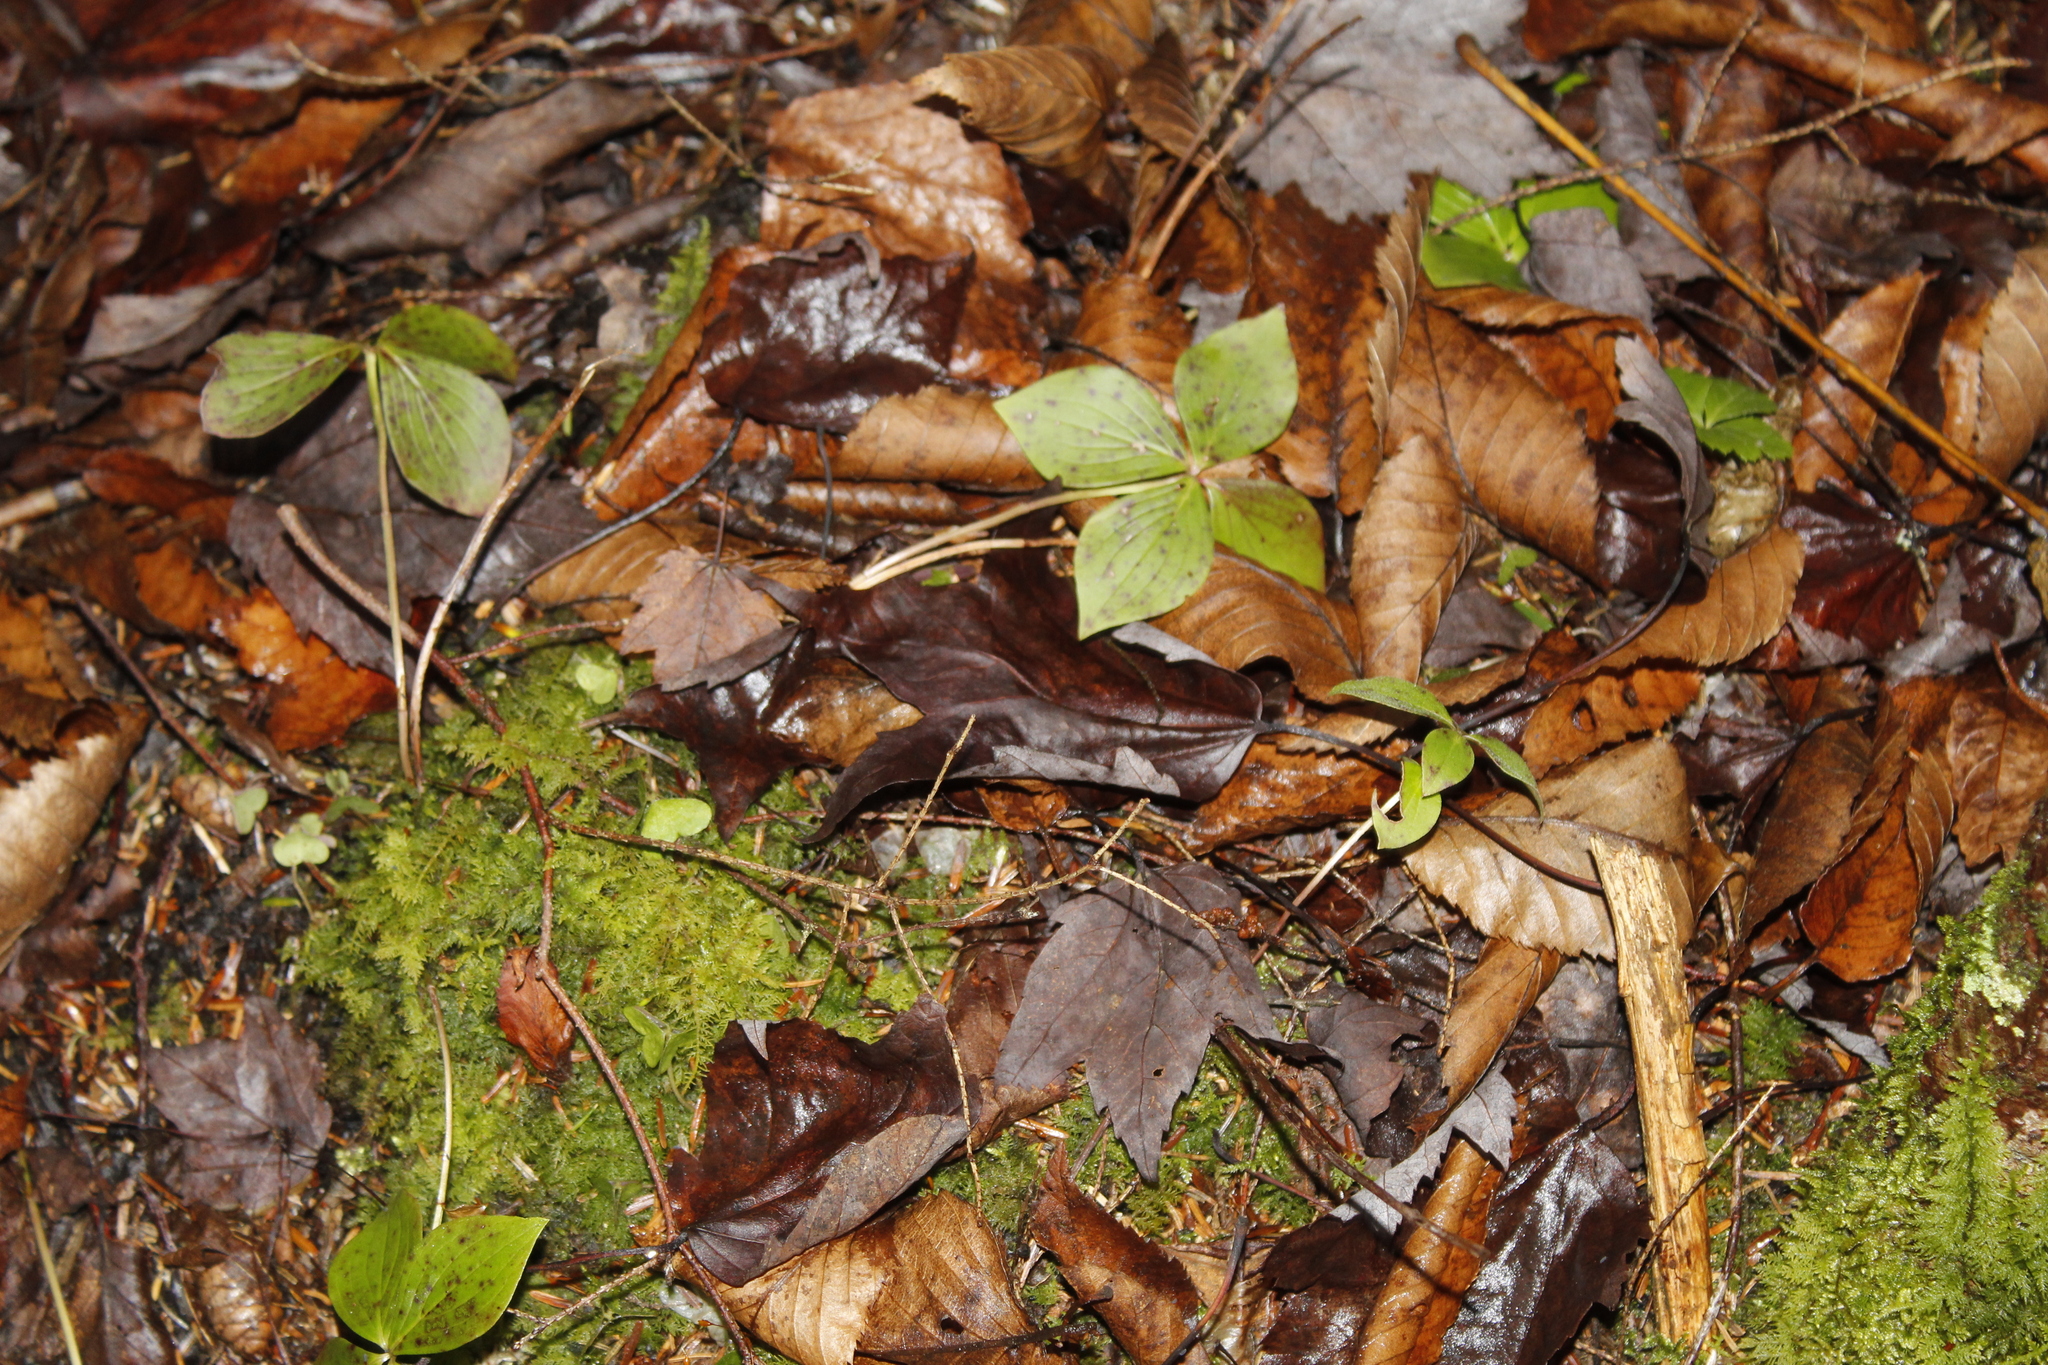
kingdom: Plantae
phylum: Tracheophyta
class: Magnoliopsida
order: Cornales
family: Cornaceae
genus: Cornus
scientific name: Cornus canadensis
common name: Creeping dogwood
